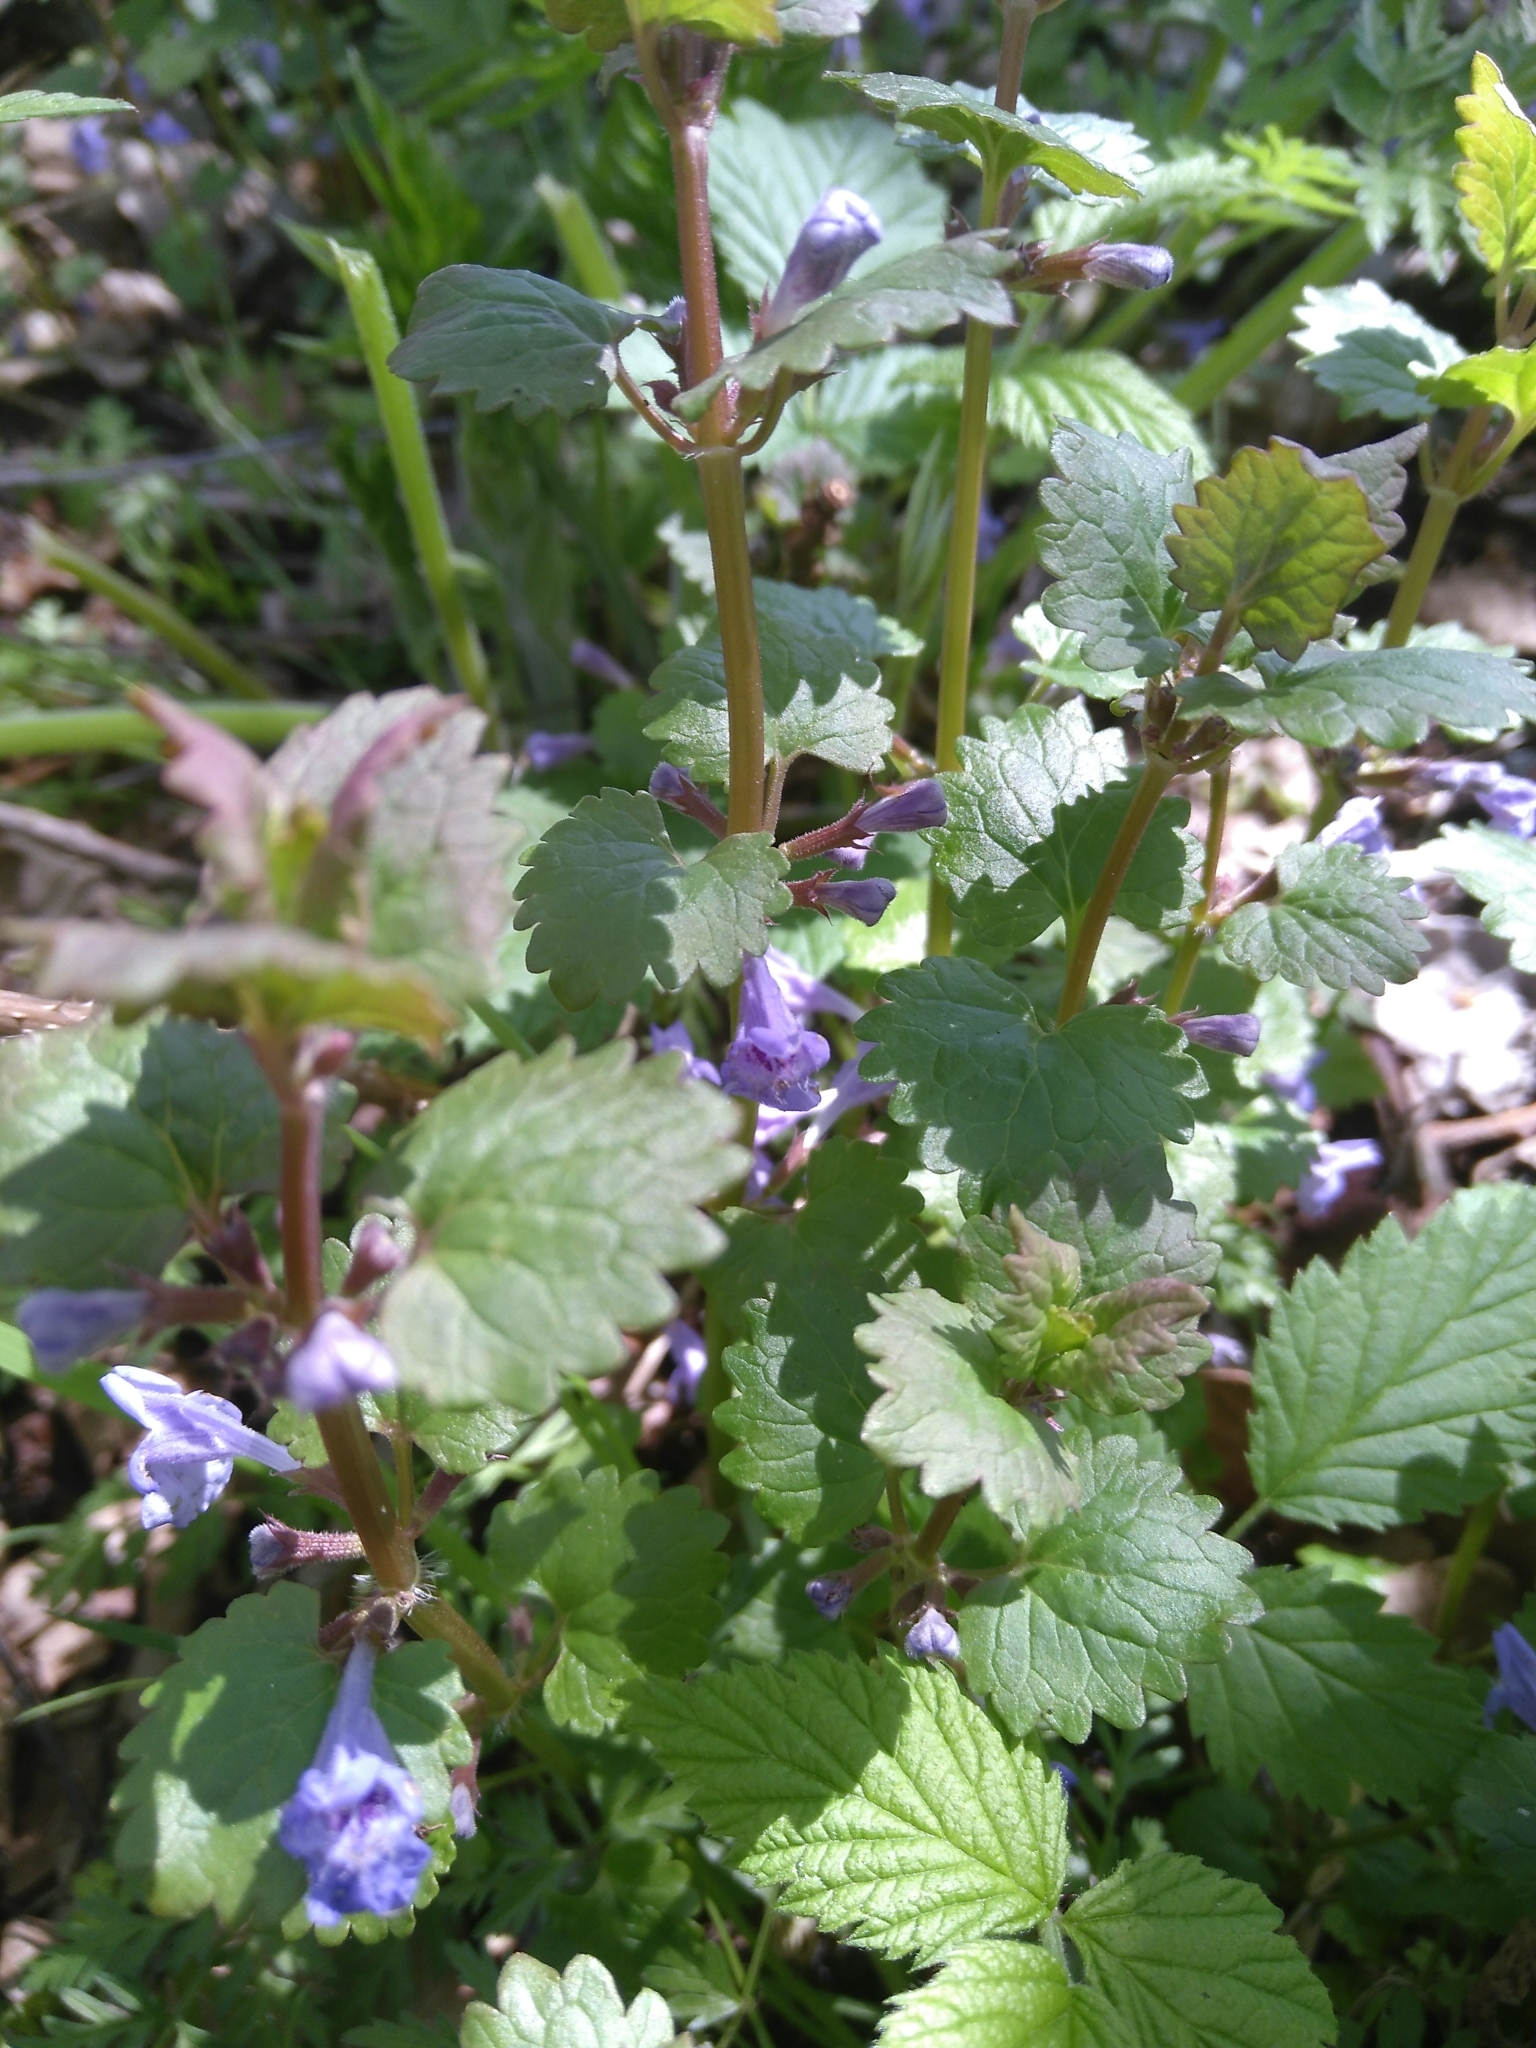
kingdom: Plantae
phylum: Tracheophyta
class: Magnoliopsida
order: Lamiales
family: Lamiaceae
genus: Glechoma
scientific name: Glechoma hederacea
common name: Ground ivy
